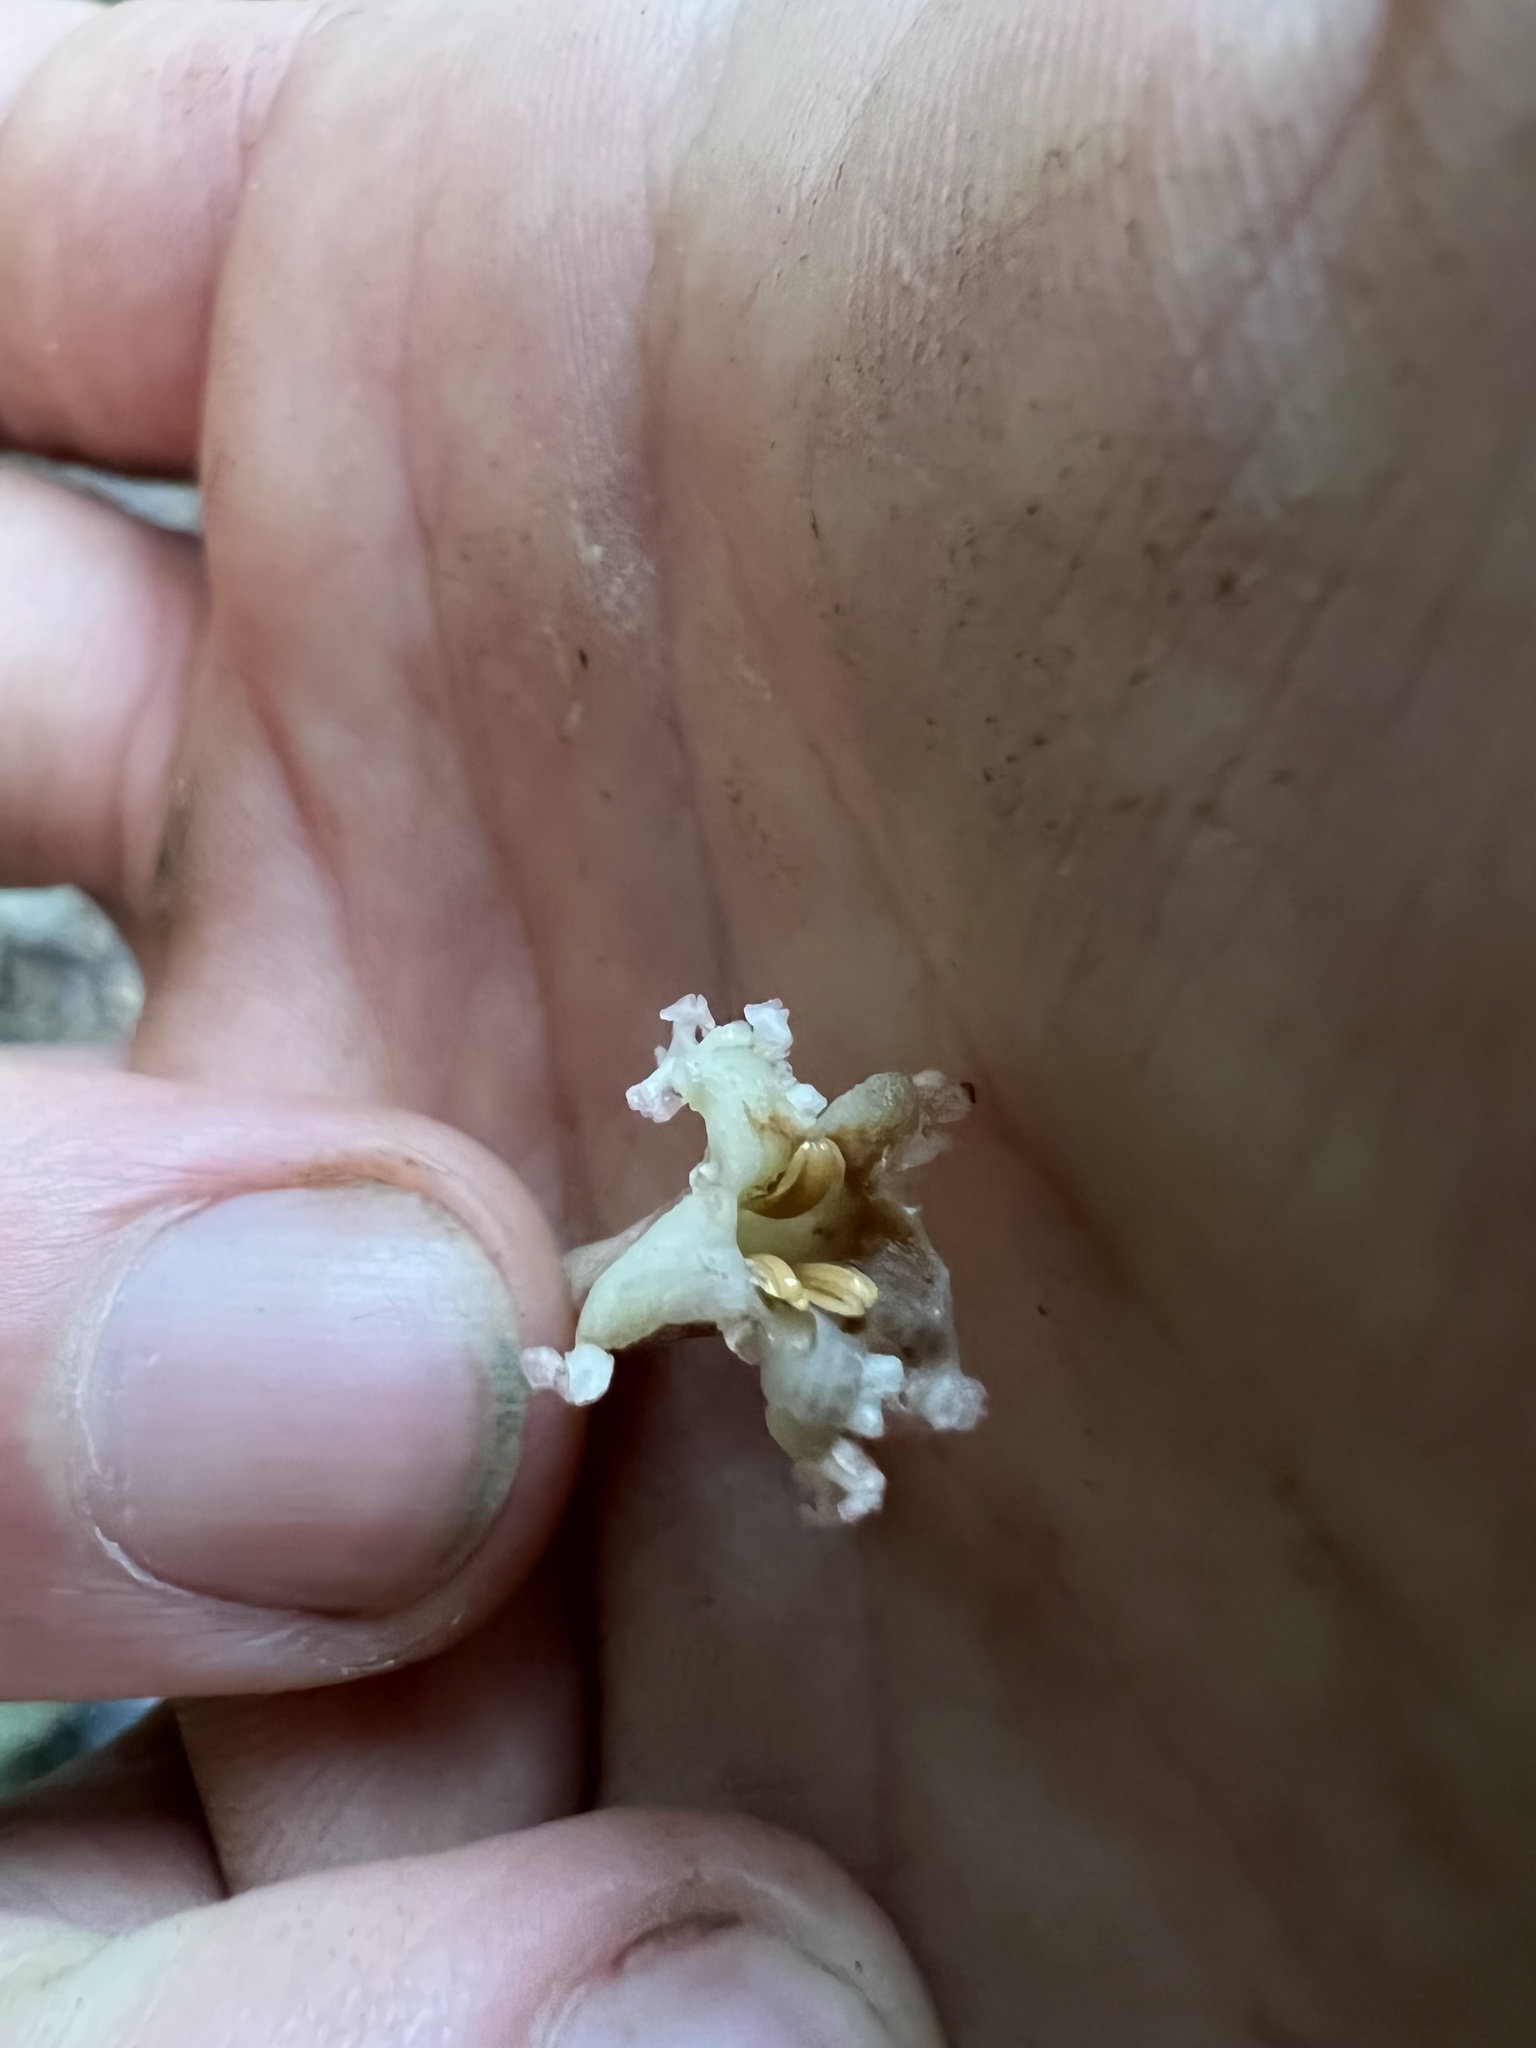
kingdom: Plantae
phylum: Tracheophyta
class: Magnoliopsida
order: Gentianales
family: Rubiaceae
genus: Guettarda
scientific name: Guettarda dependens
